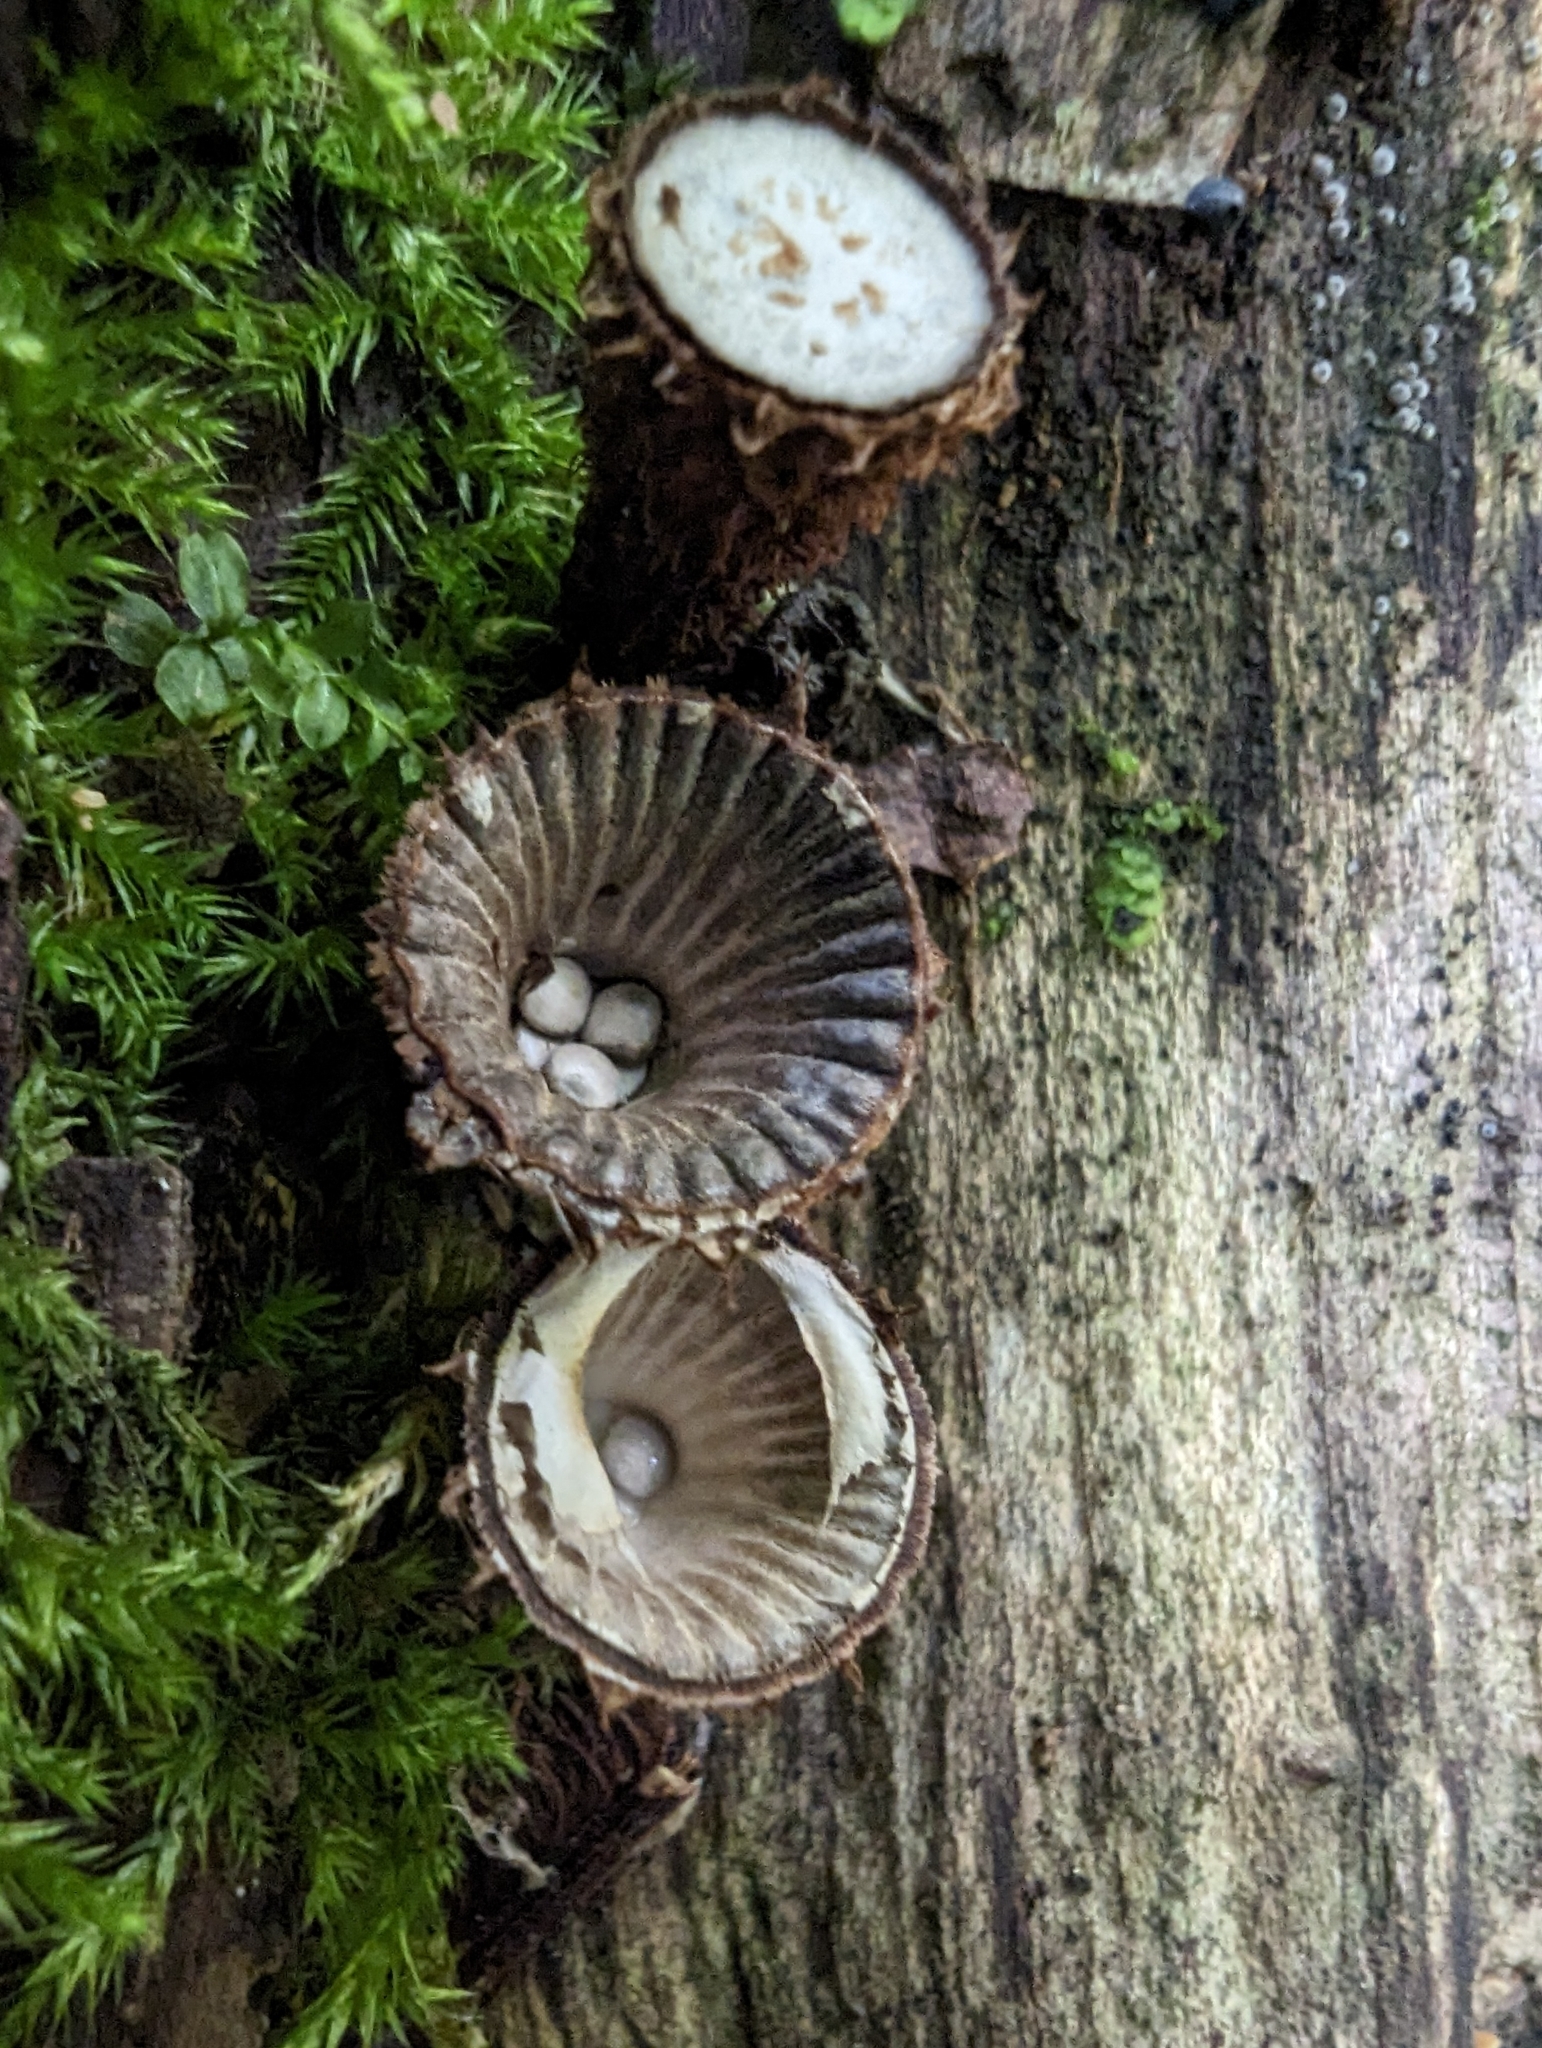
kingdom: Fungi
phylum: Basidiomycota
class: Agaricomycetes
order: Agaricales
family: Agaricaceae
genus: Cyathus
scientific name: Cyathus striatus
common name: Fluted bird's nest
